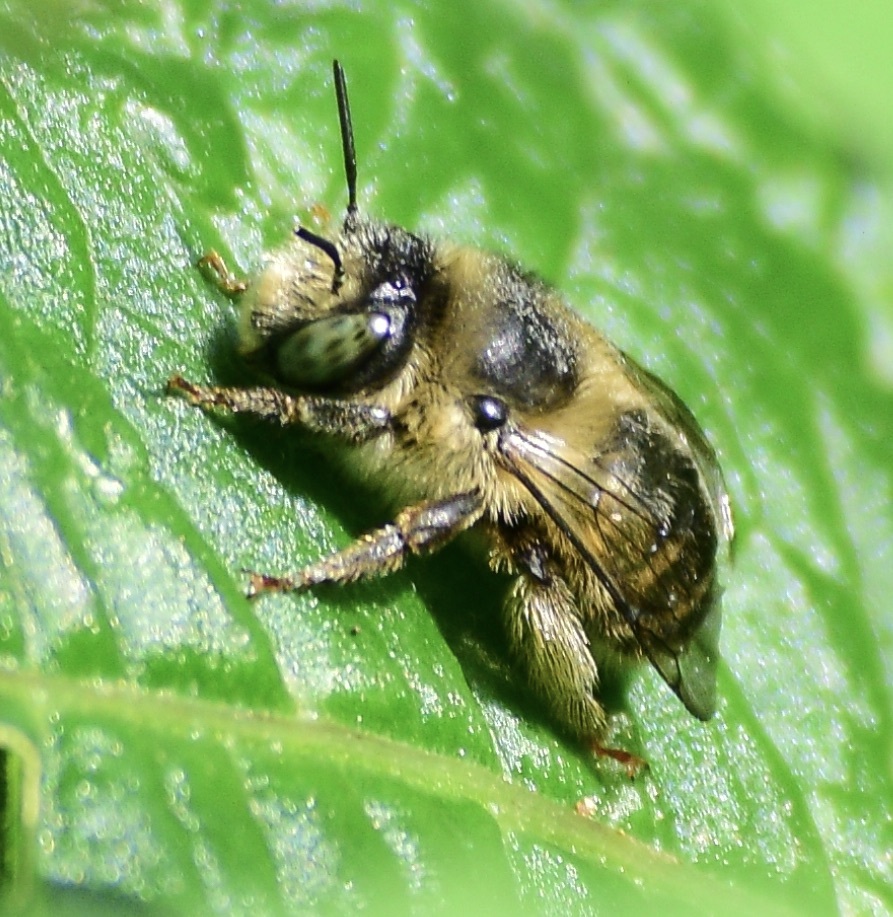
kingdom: Animalia
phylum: Arthropoda
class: Insecta
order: Hymenoptera
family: Apidae
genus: Anthophora
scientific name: Anthophora terminalis
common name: Orange-tipped wood-digger bee
